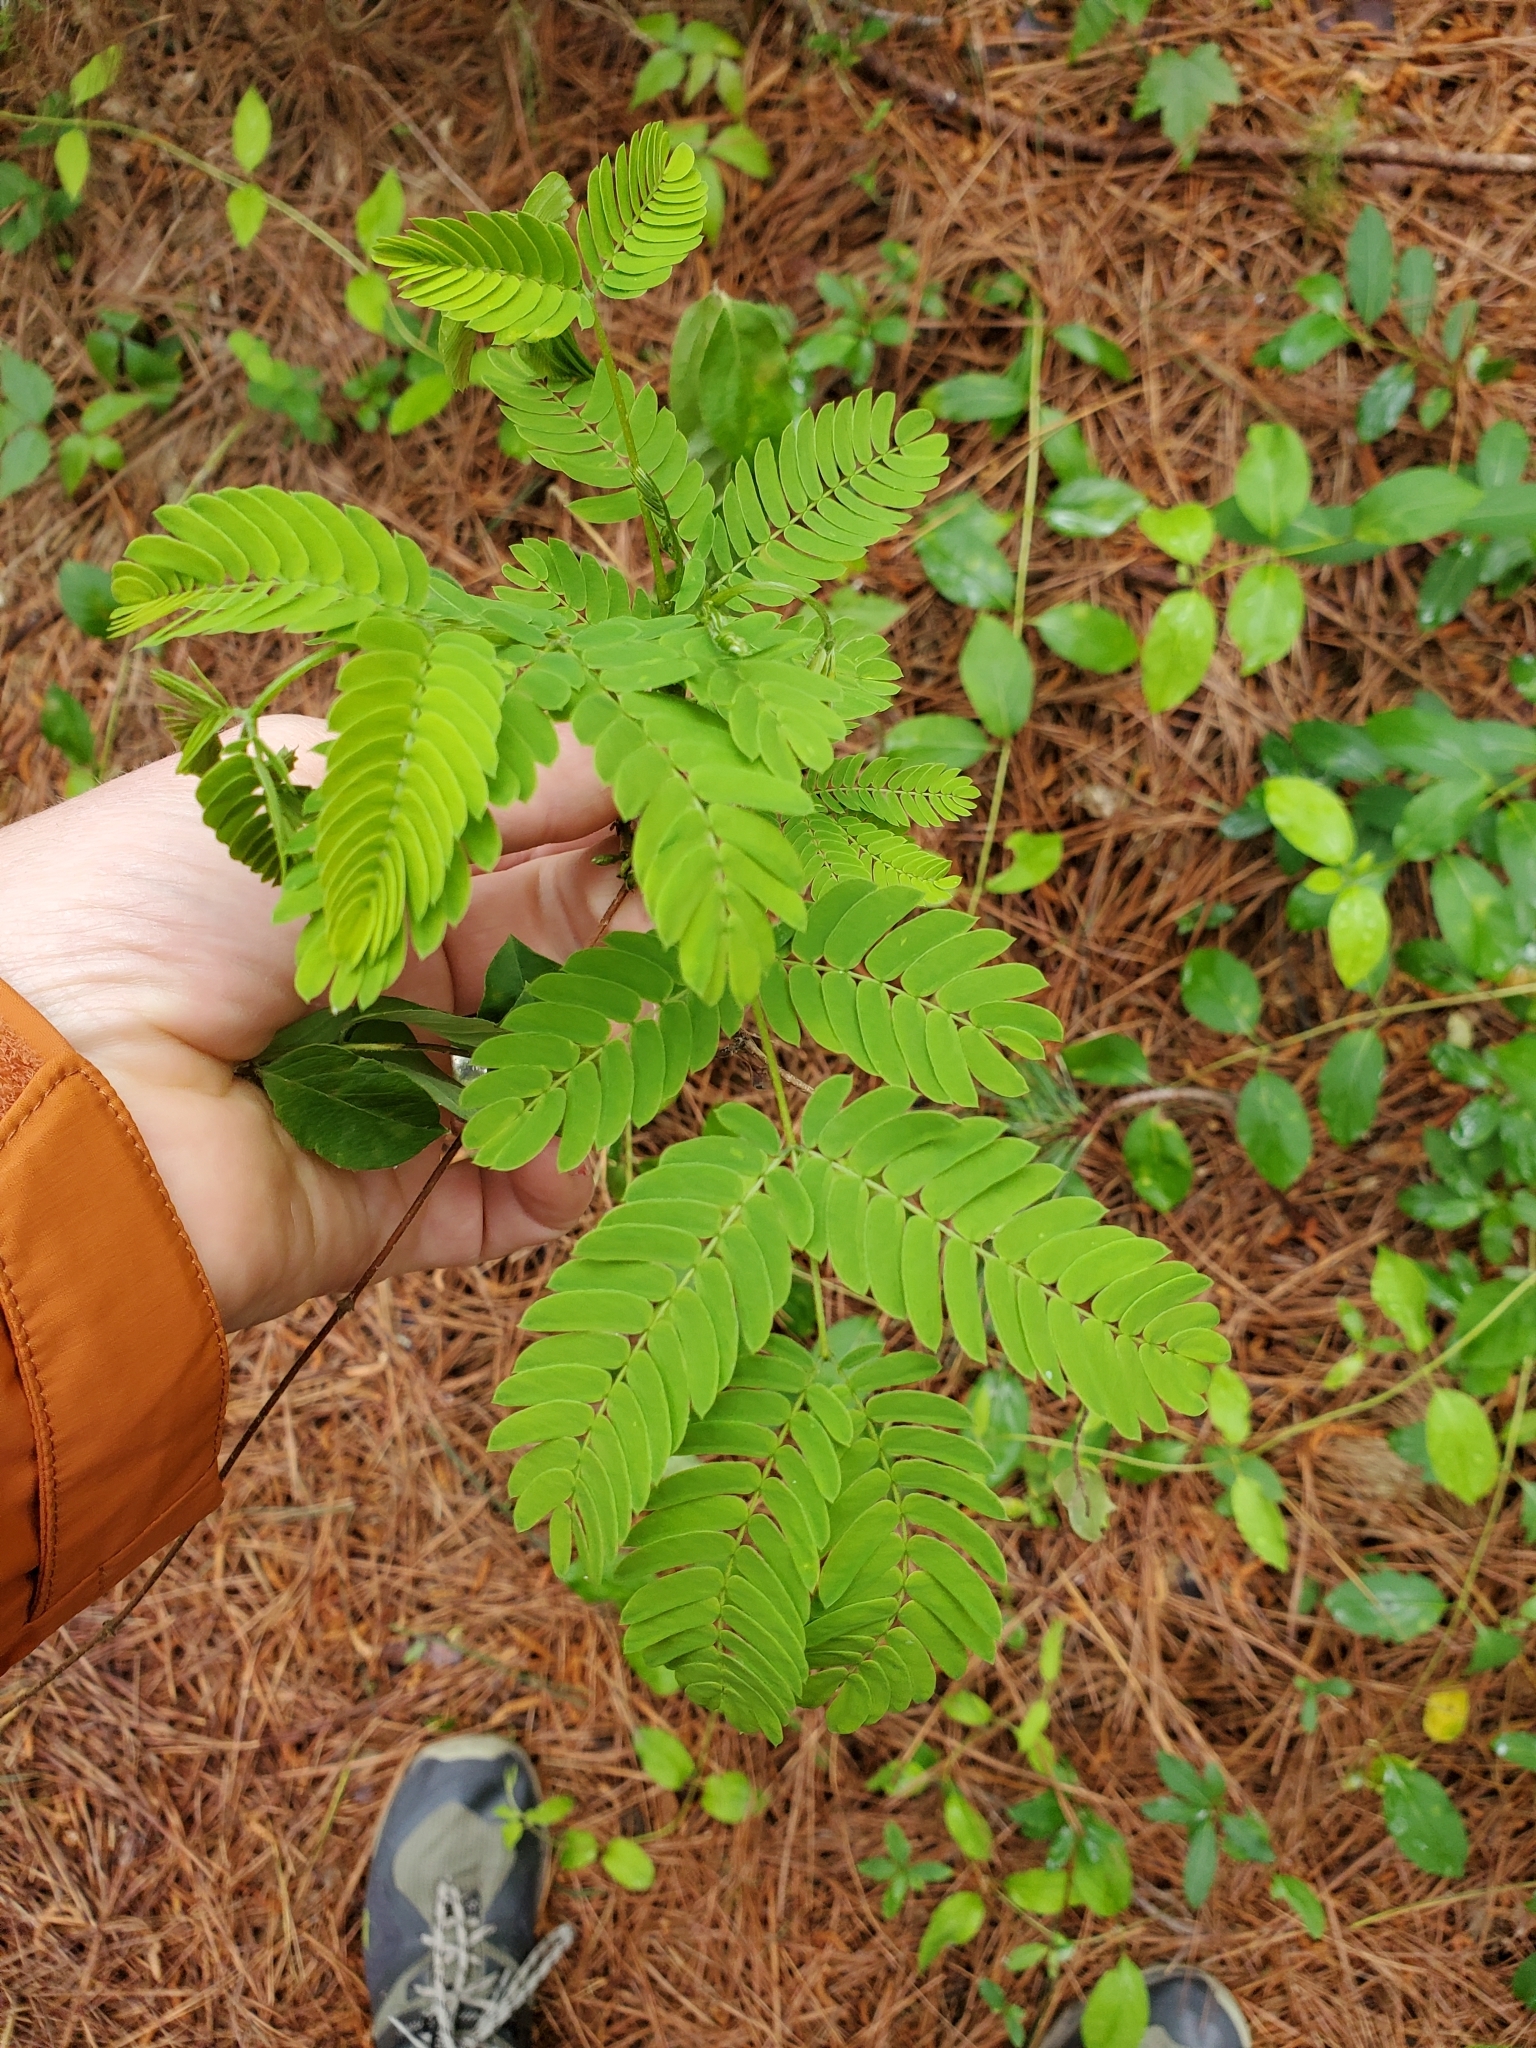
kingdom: Plantae
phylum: Tracheophyta
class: Magnoliopsida
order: Fabales
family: Fabaceae
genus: Albizia
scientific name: Albizia julibrissin
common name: Silktree
